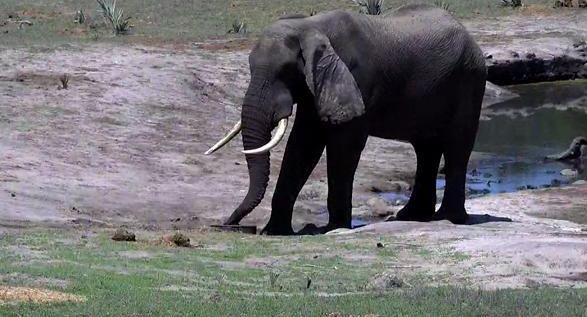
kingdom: Animalia
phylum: Chordata
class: Mammalia
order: Proboscidea
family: Elephantidae
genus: Loxodonta
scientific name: Loxodonta africana
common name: African elephant
